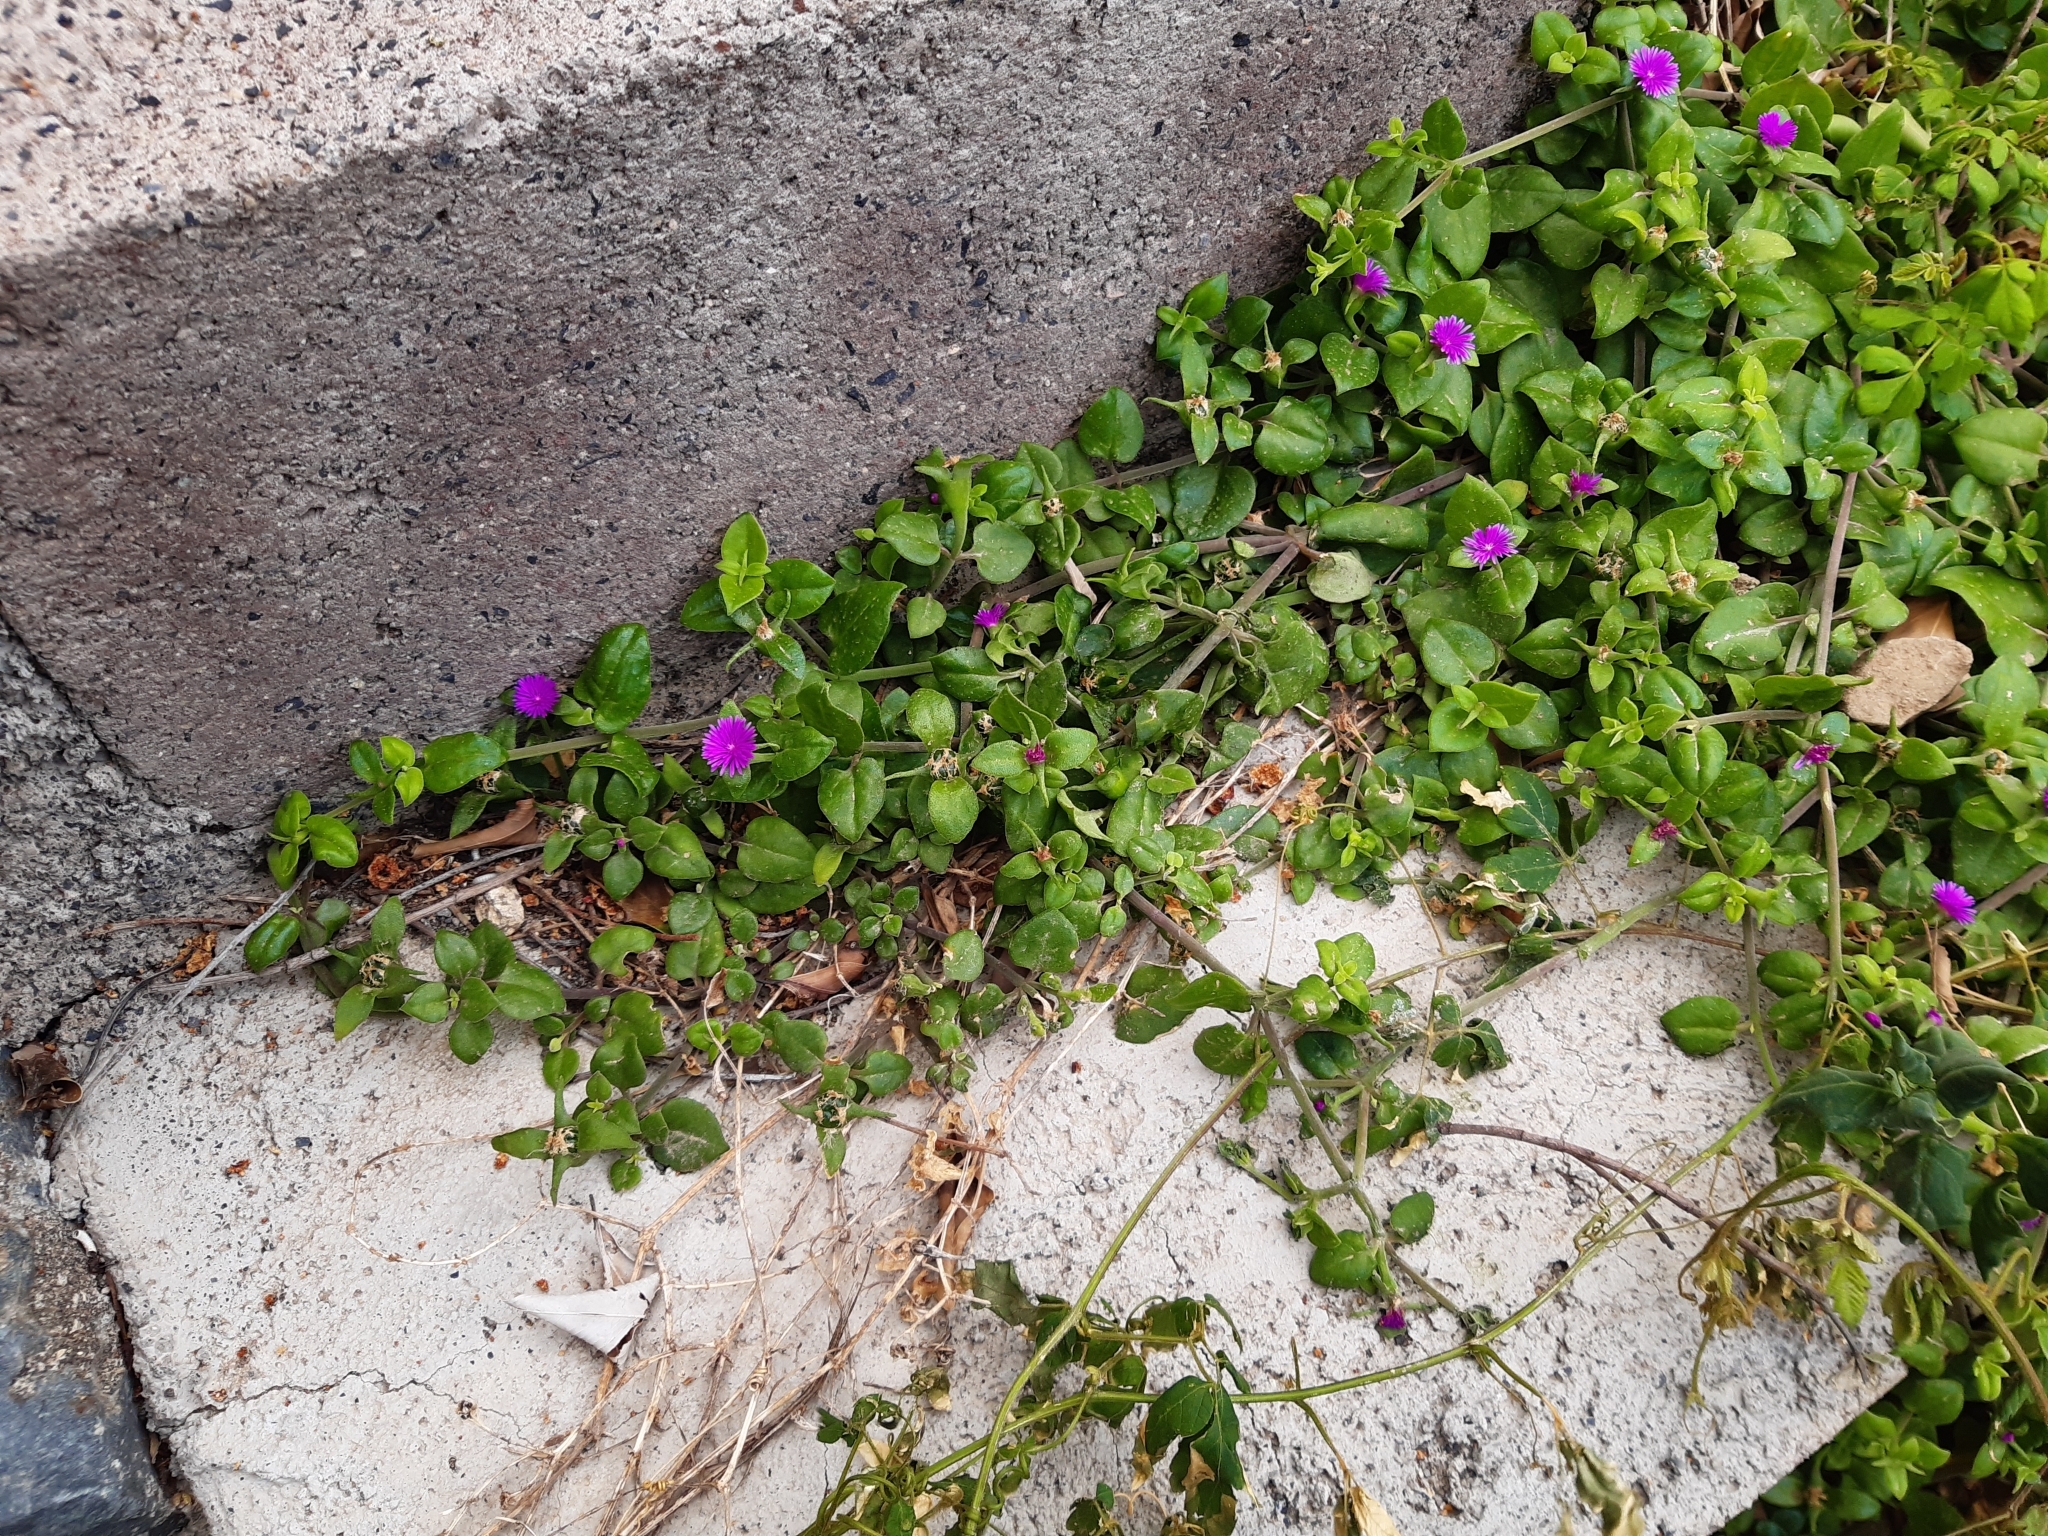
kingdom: Plantae
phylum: Tracheophyta
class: Magnoliopsida
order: Caryophyllales
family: Aizoaceae
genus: Mesembryanthemum
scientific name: Mesembryanthemum cordifolium
